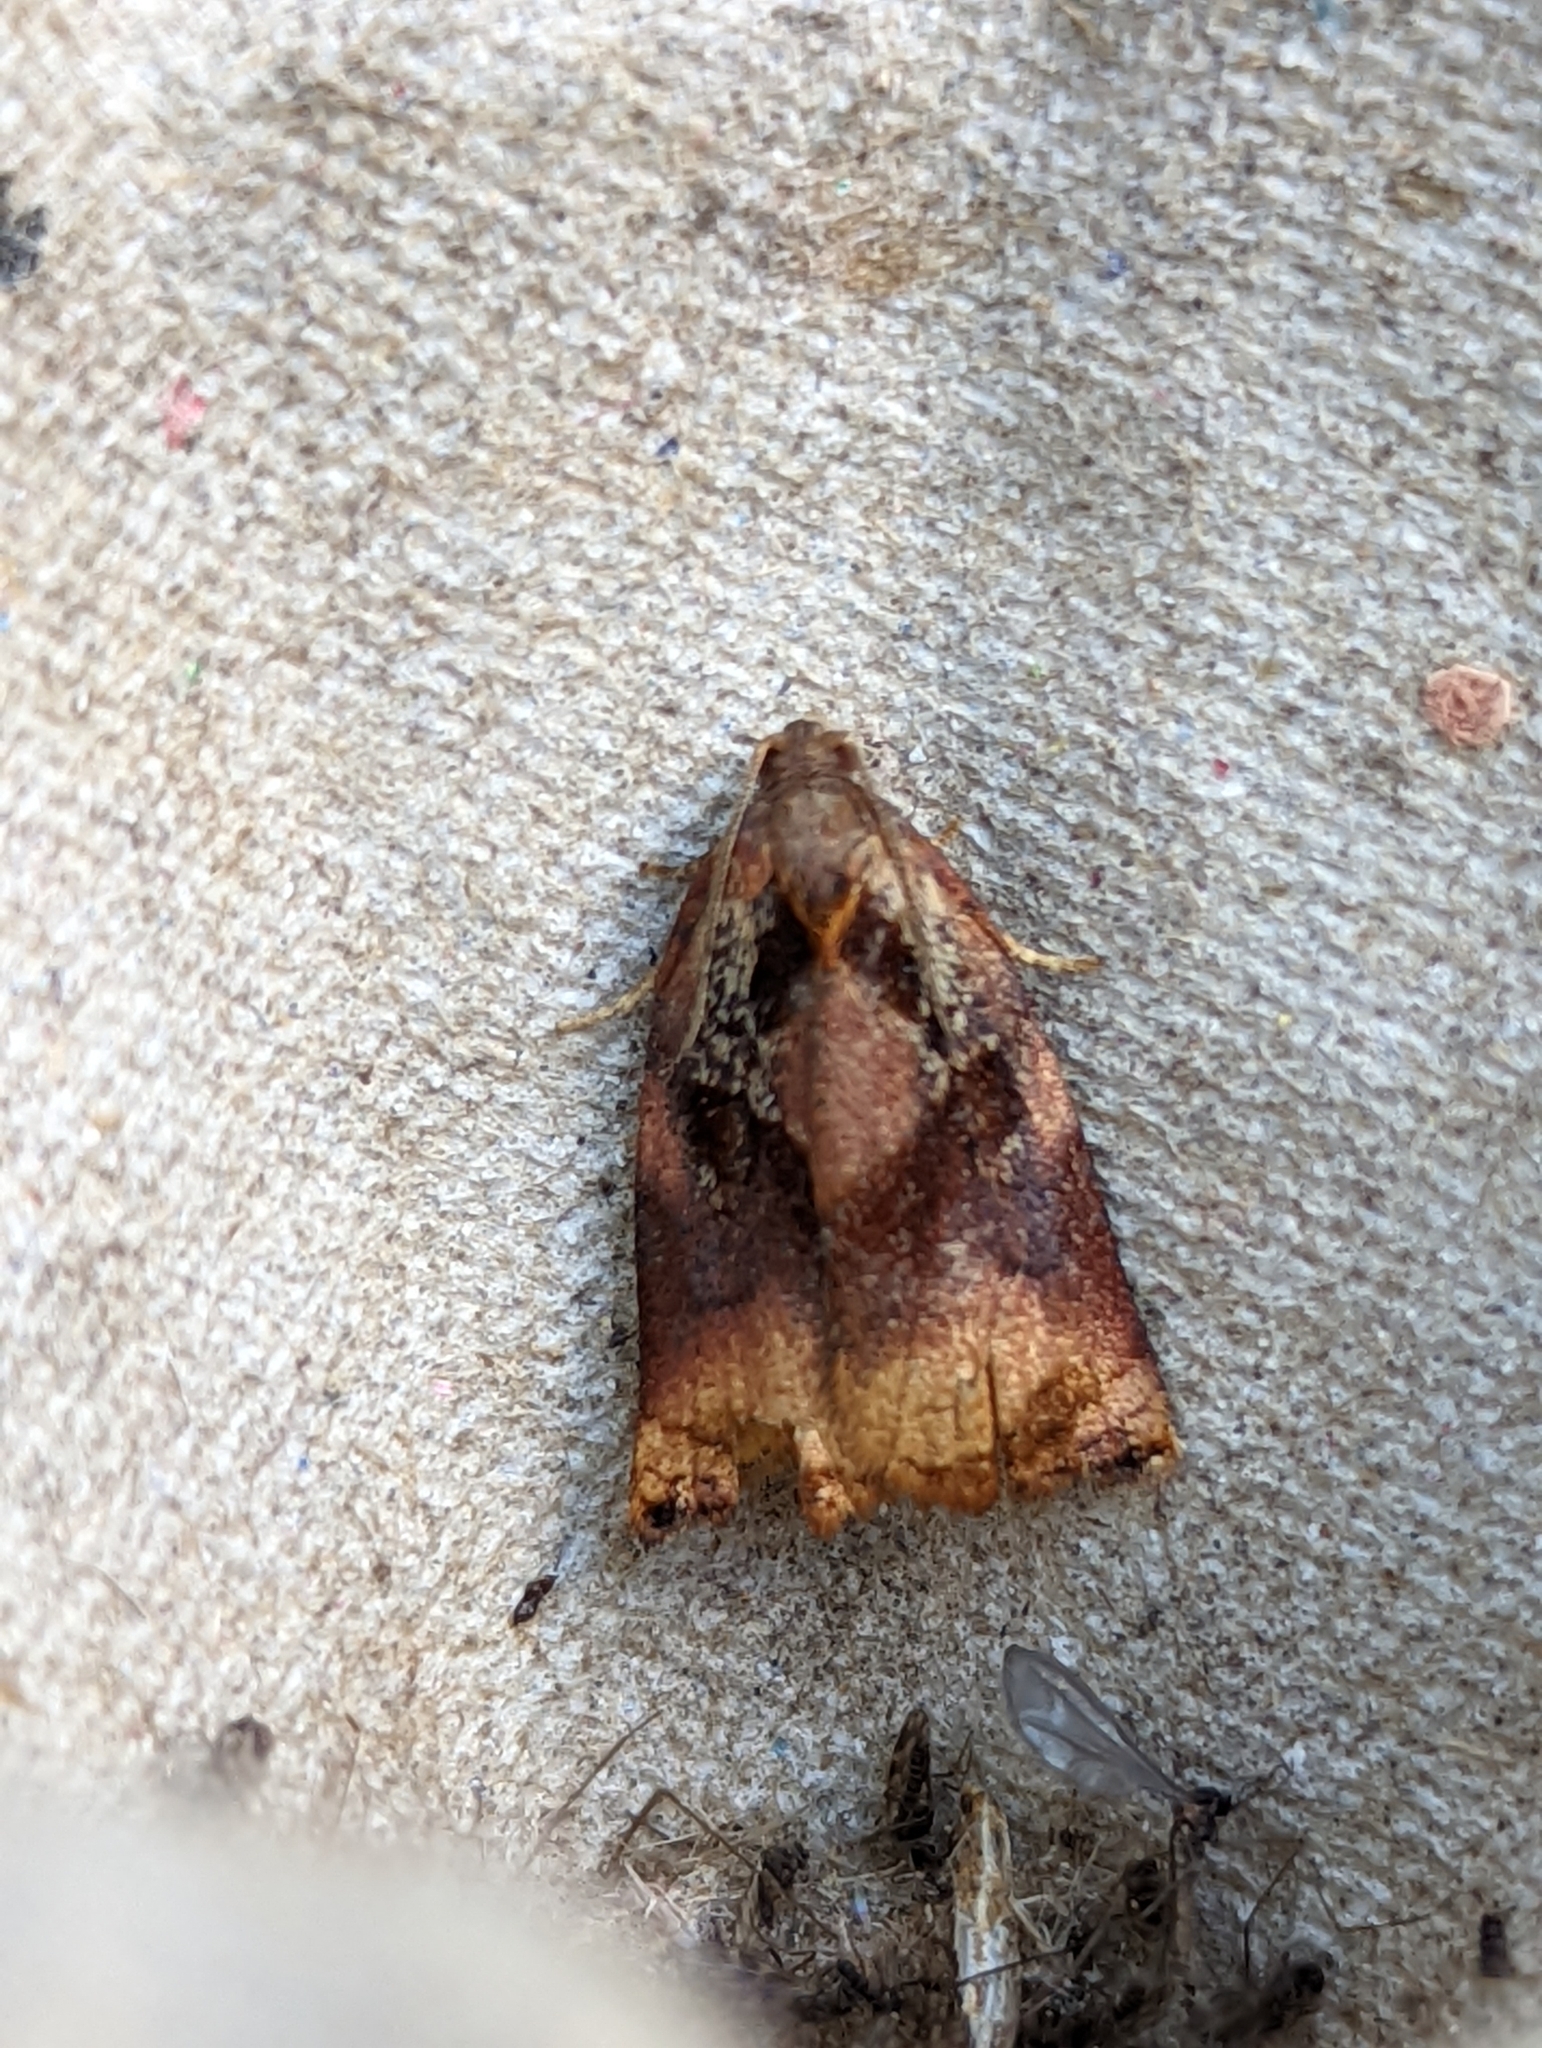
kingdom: Animalia
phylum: Arthropoda
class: Insecta
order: Lepidoptera
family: Tortricidae
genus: Archips
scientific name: Archips podana
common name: Large fruit-tree tortrix
